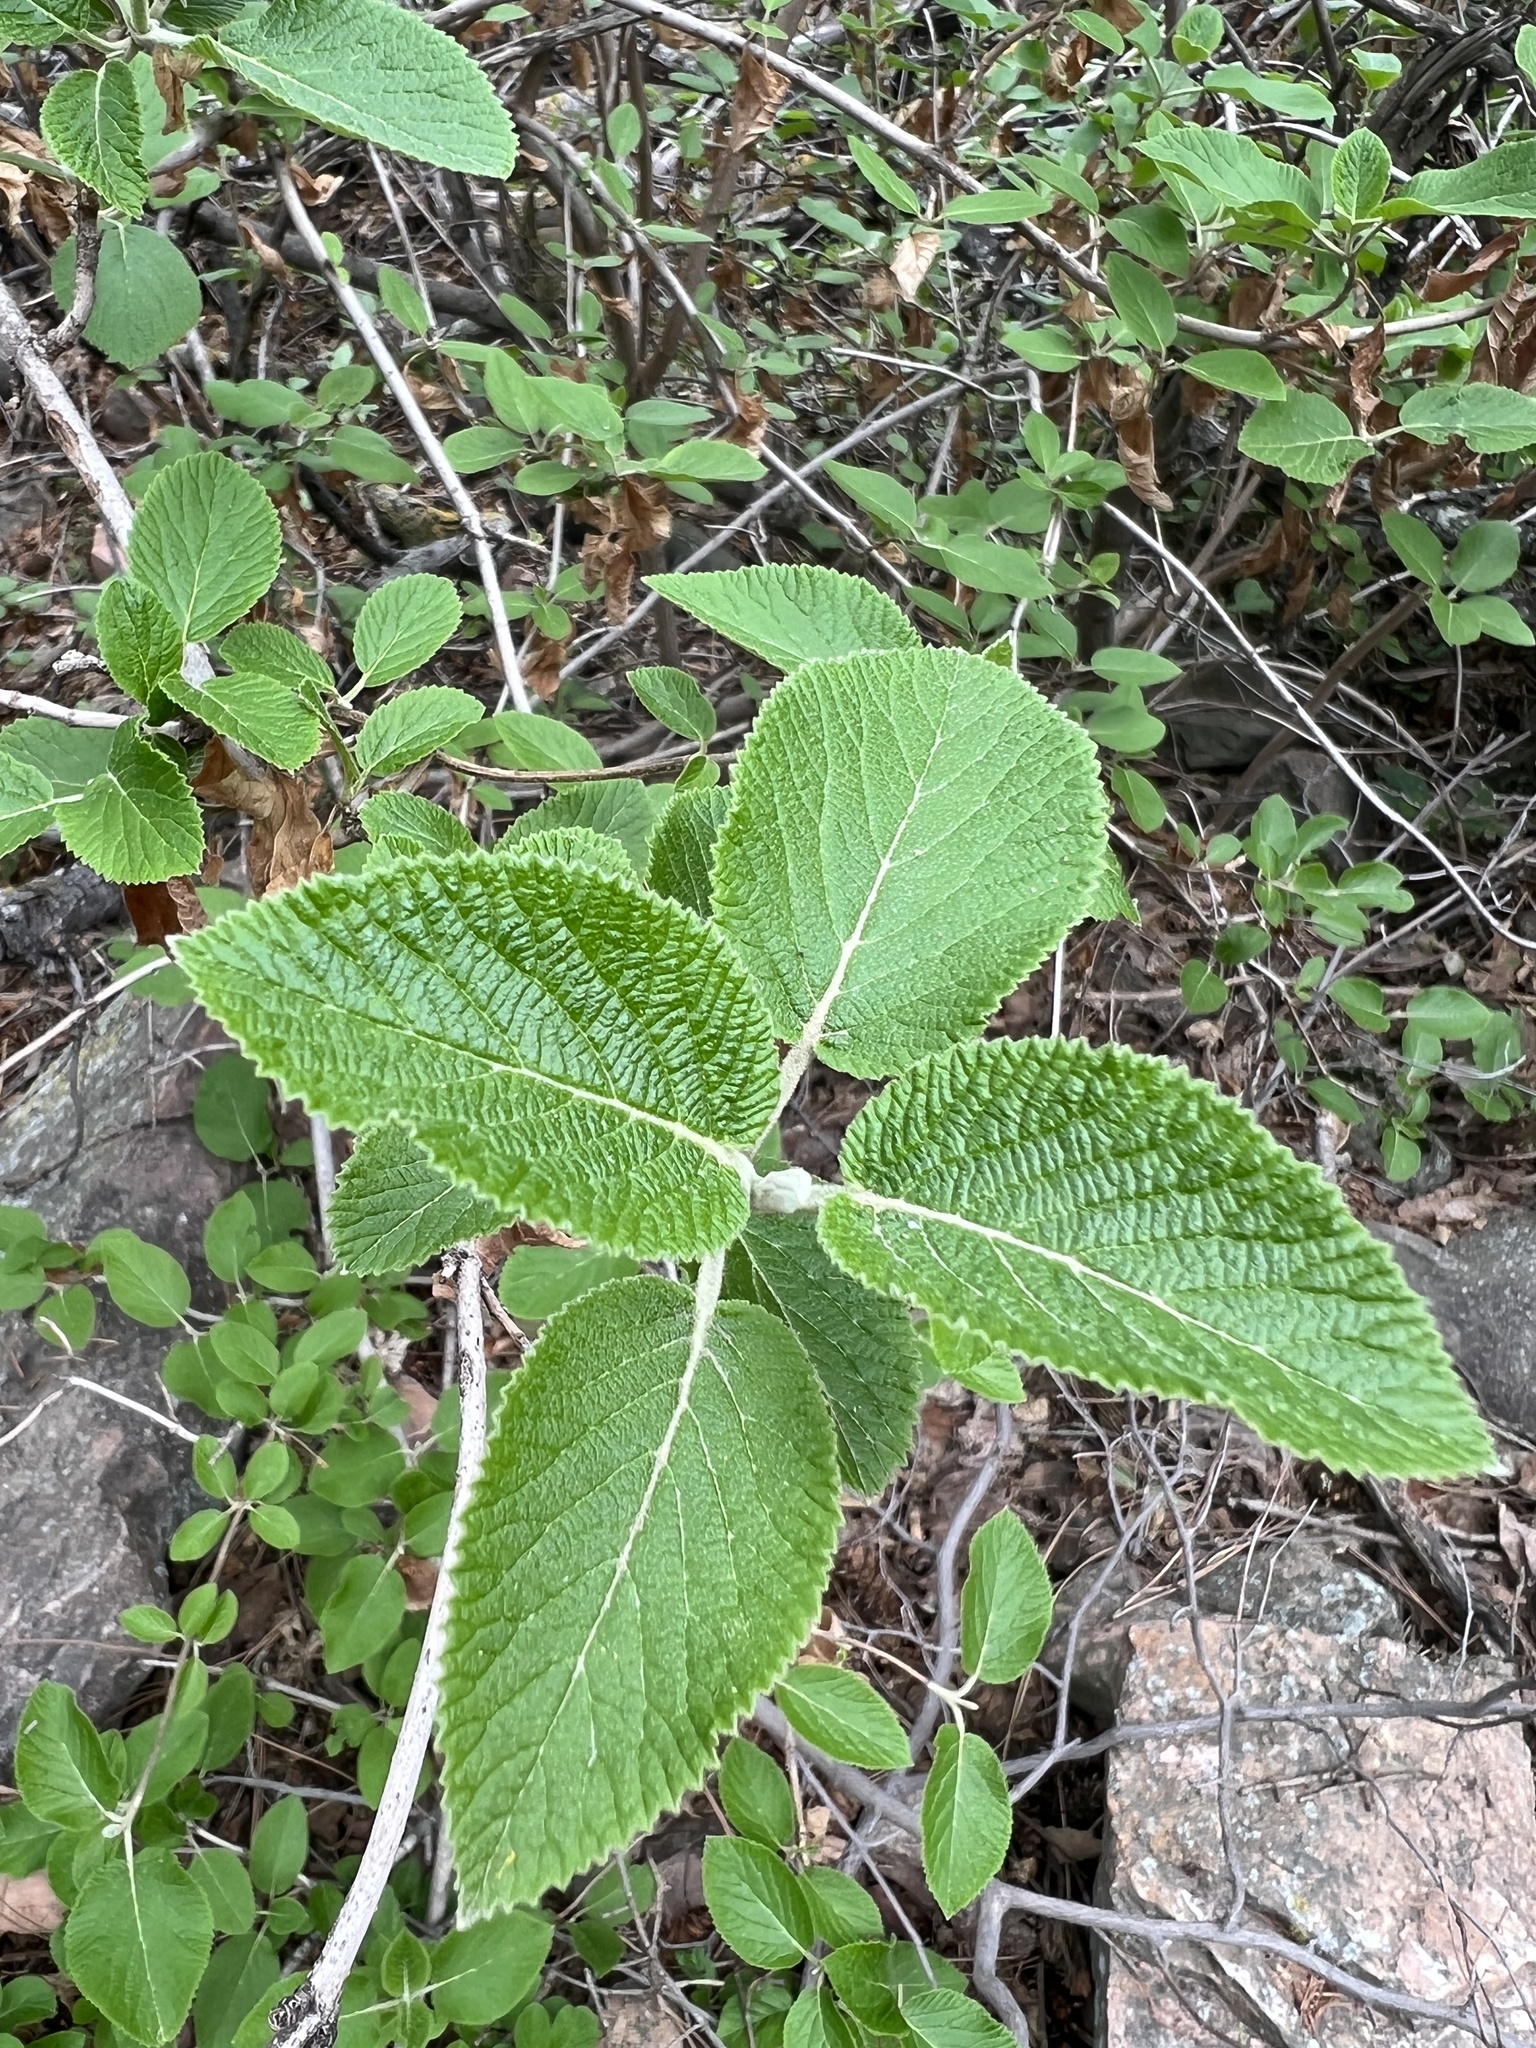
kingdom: Plantae
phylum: Tracheophyta
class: Magnoliopsida
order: Dipsacales
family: Viburnaceae
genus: Viburnum
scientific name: Viburnum lantana
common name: Wayfaring tree
